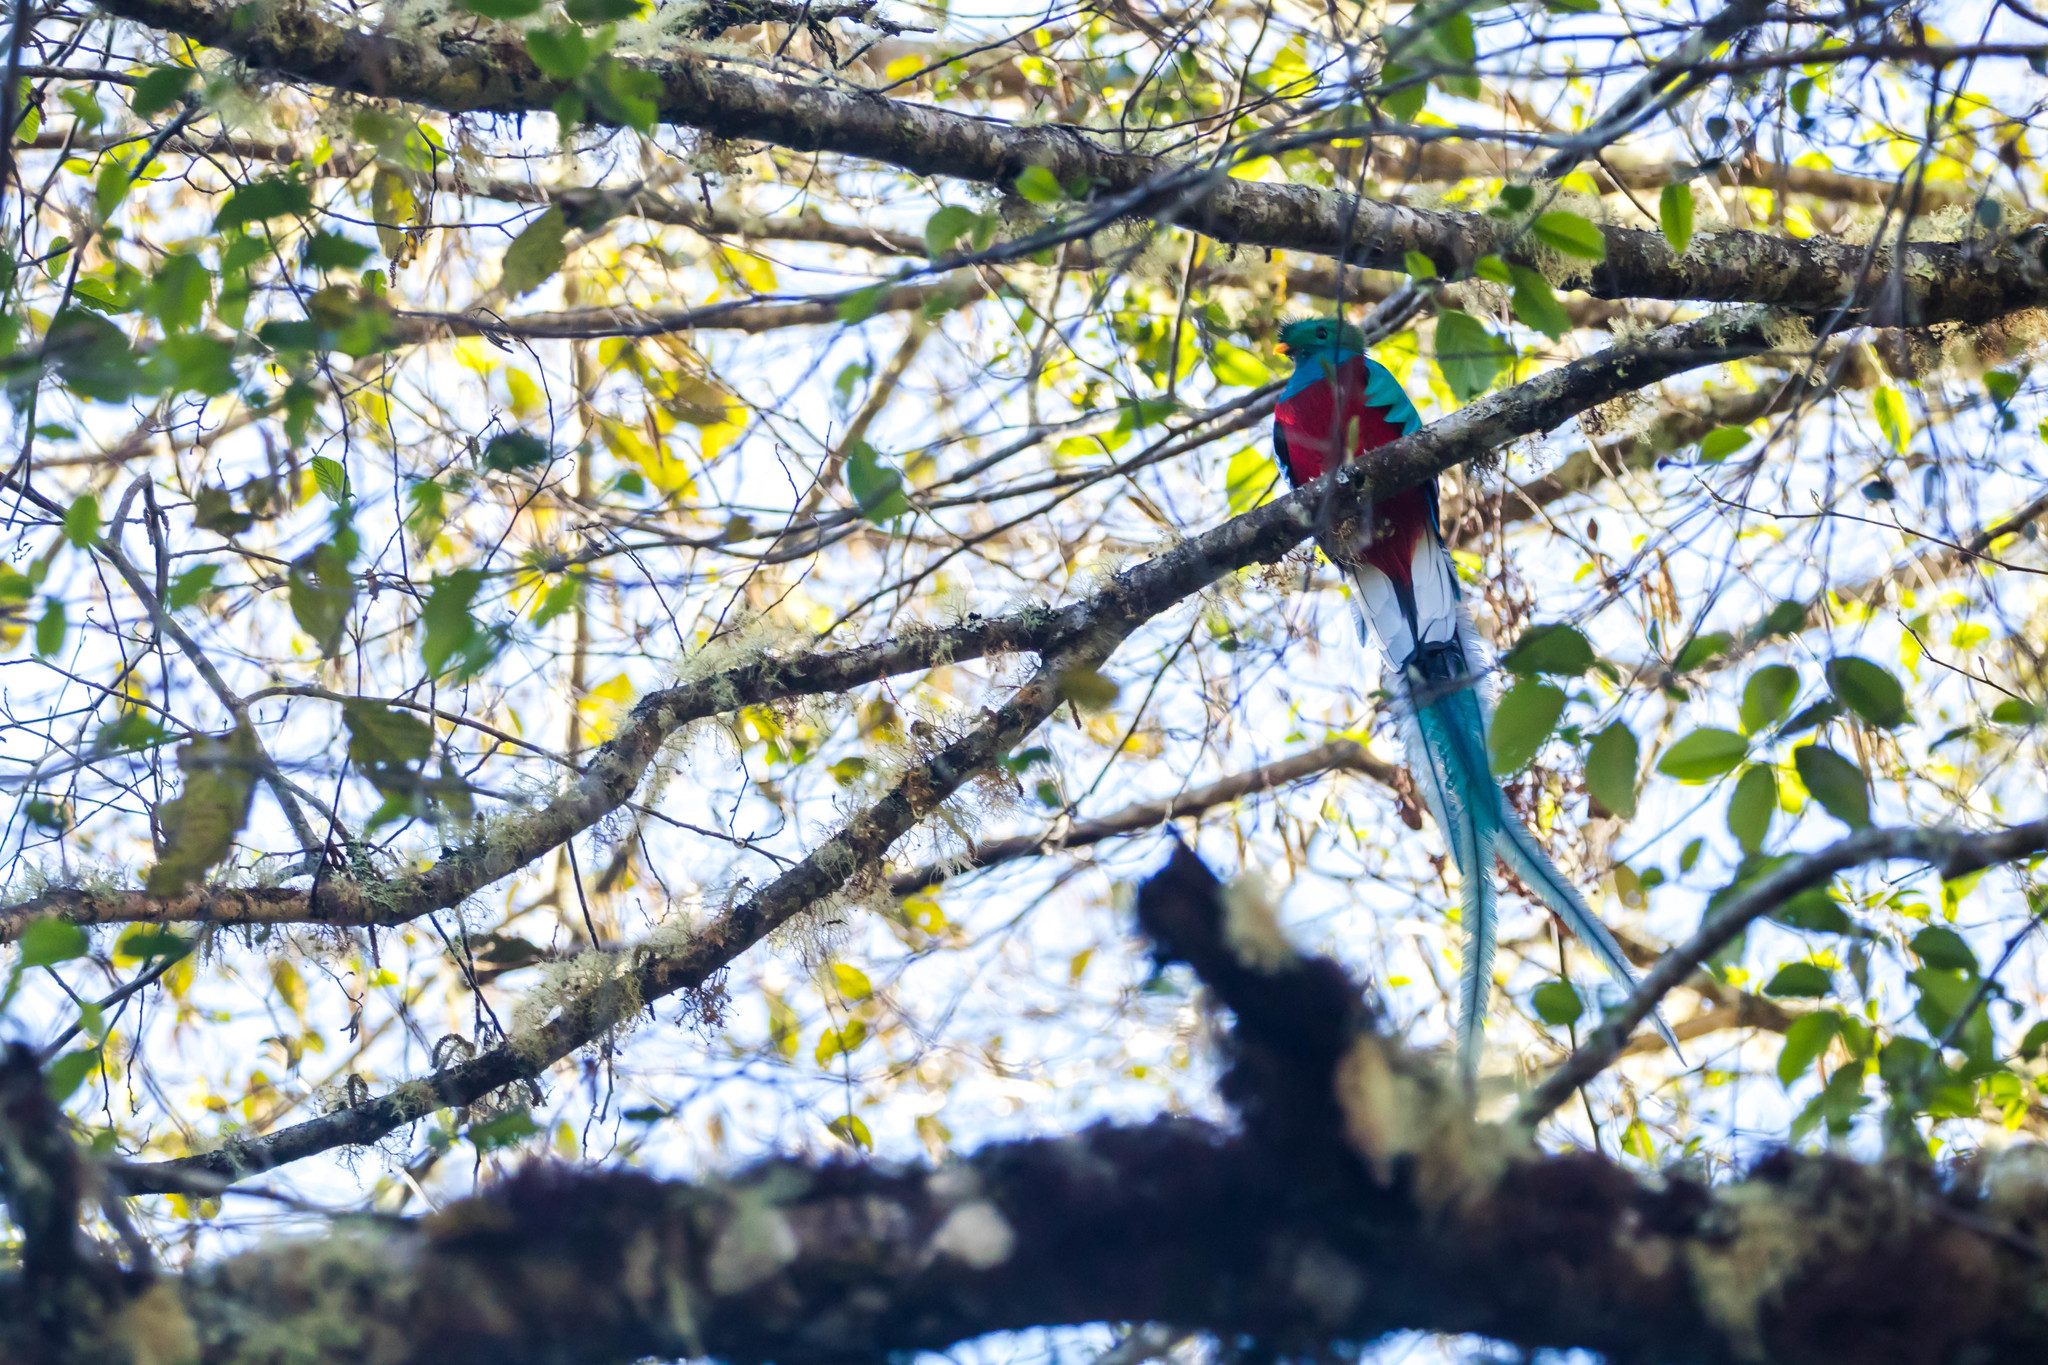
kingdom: Animalia
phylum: Chordata
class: Aves
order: Trogoniformes
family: Trogonidae
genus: Pharomachrus
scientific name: Pharomachrus mocinno
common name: Resplendent quetzal
